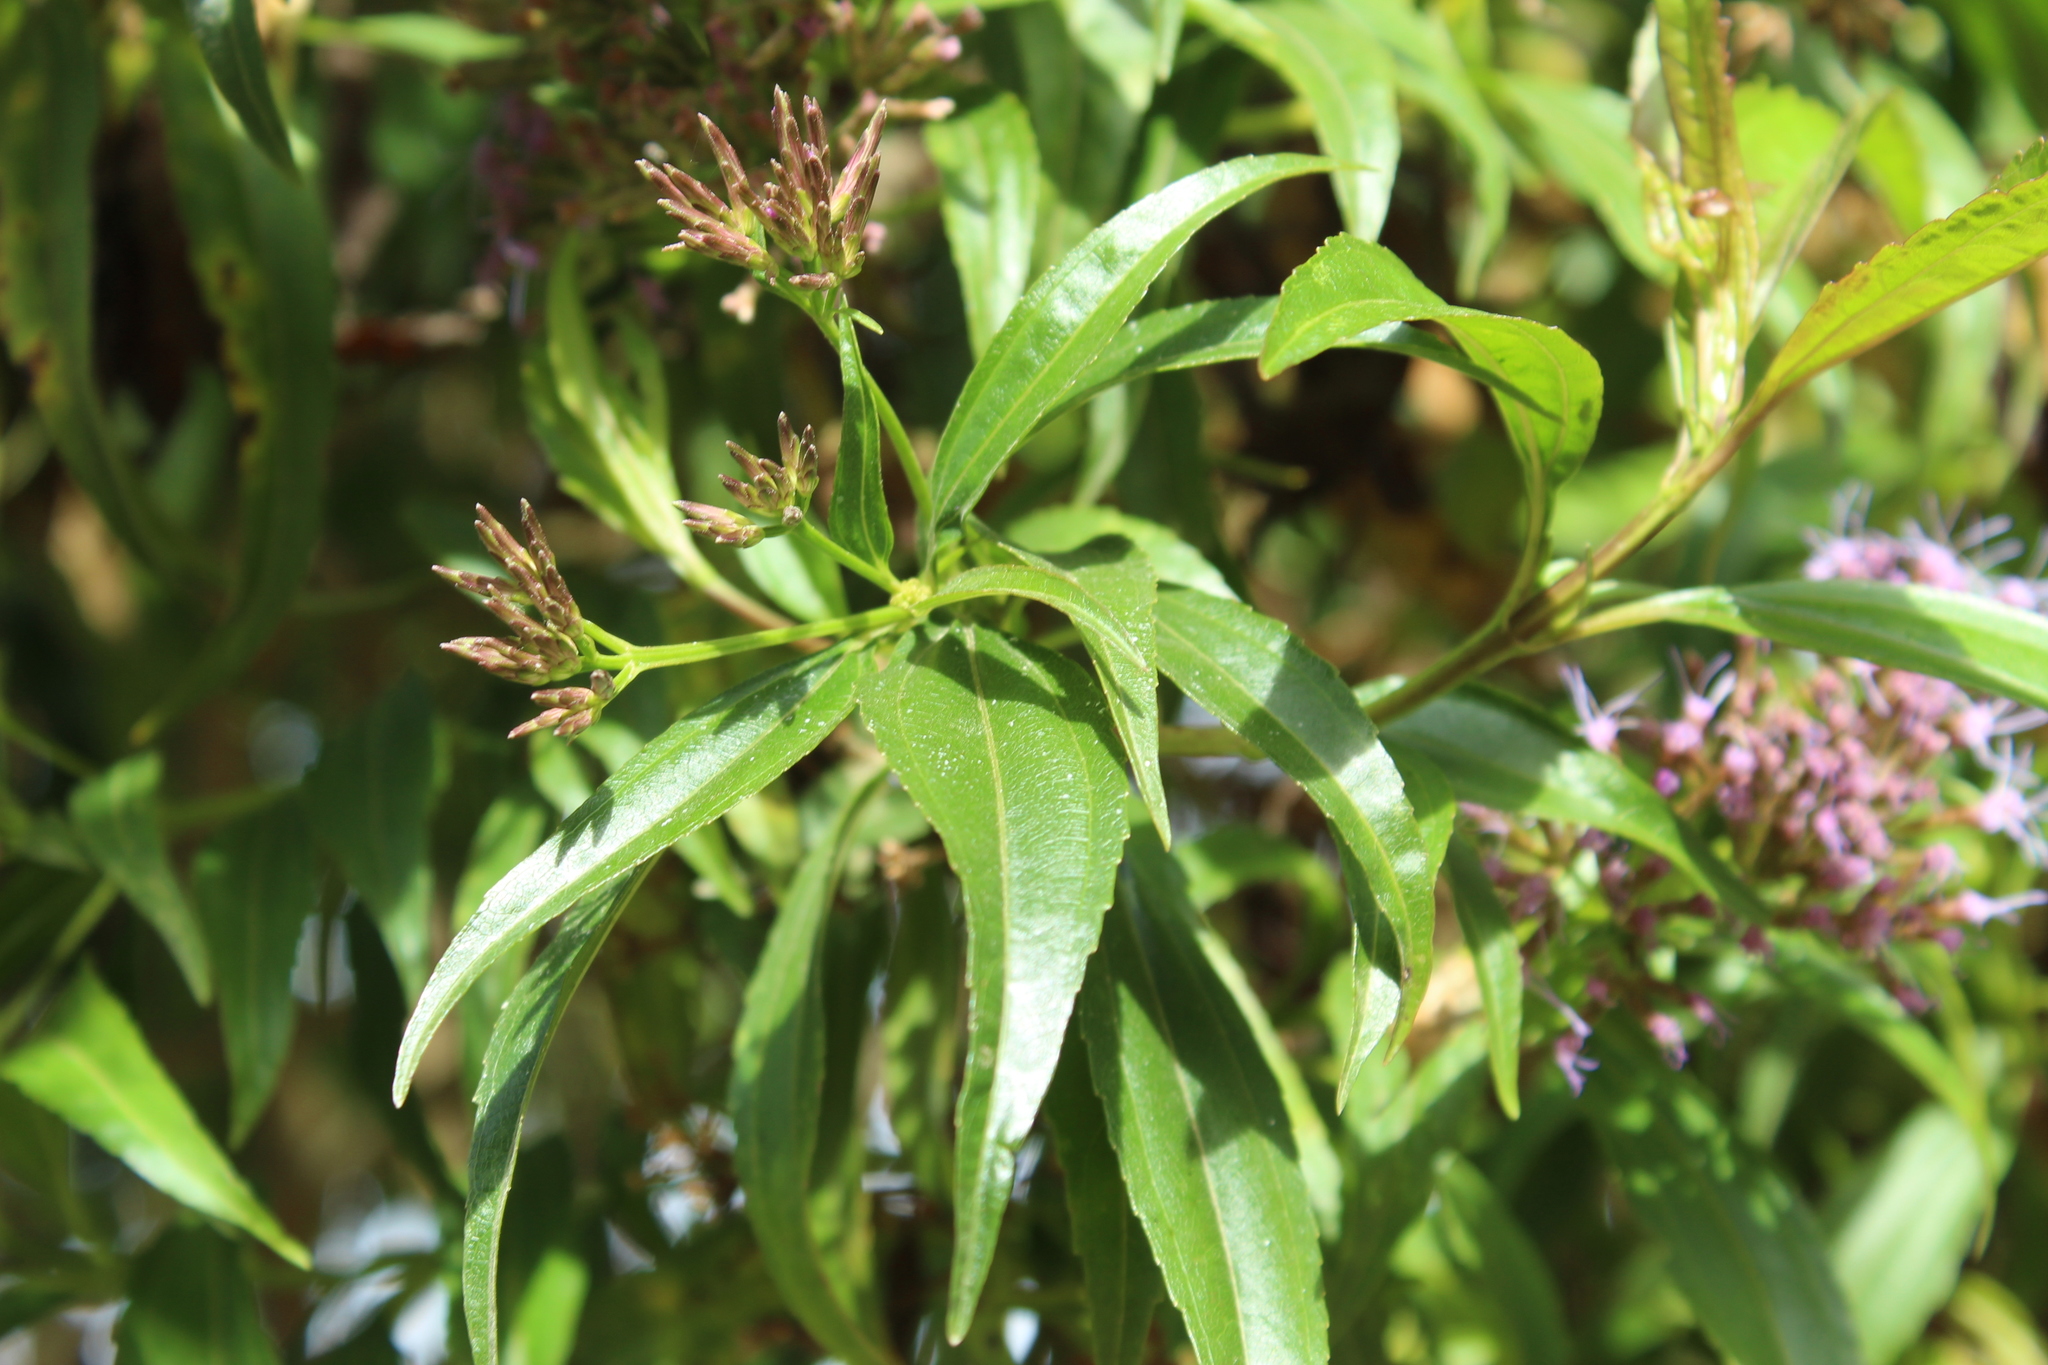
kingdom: Plantae
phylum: Tracheophyta
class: Magnoliopsida
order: Asterales
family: Asteraceae
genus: Chromolaena
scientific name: Chromolaena perglabra
